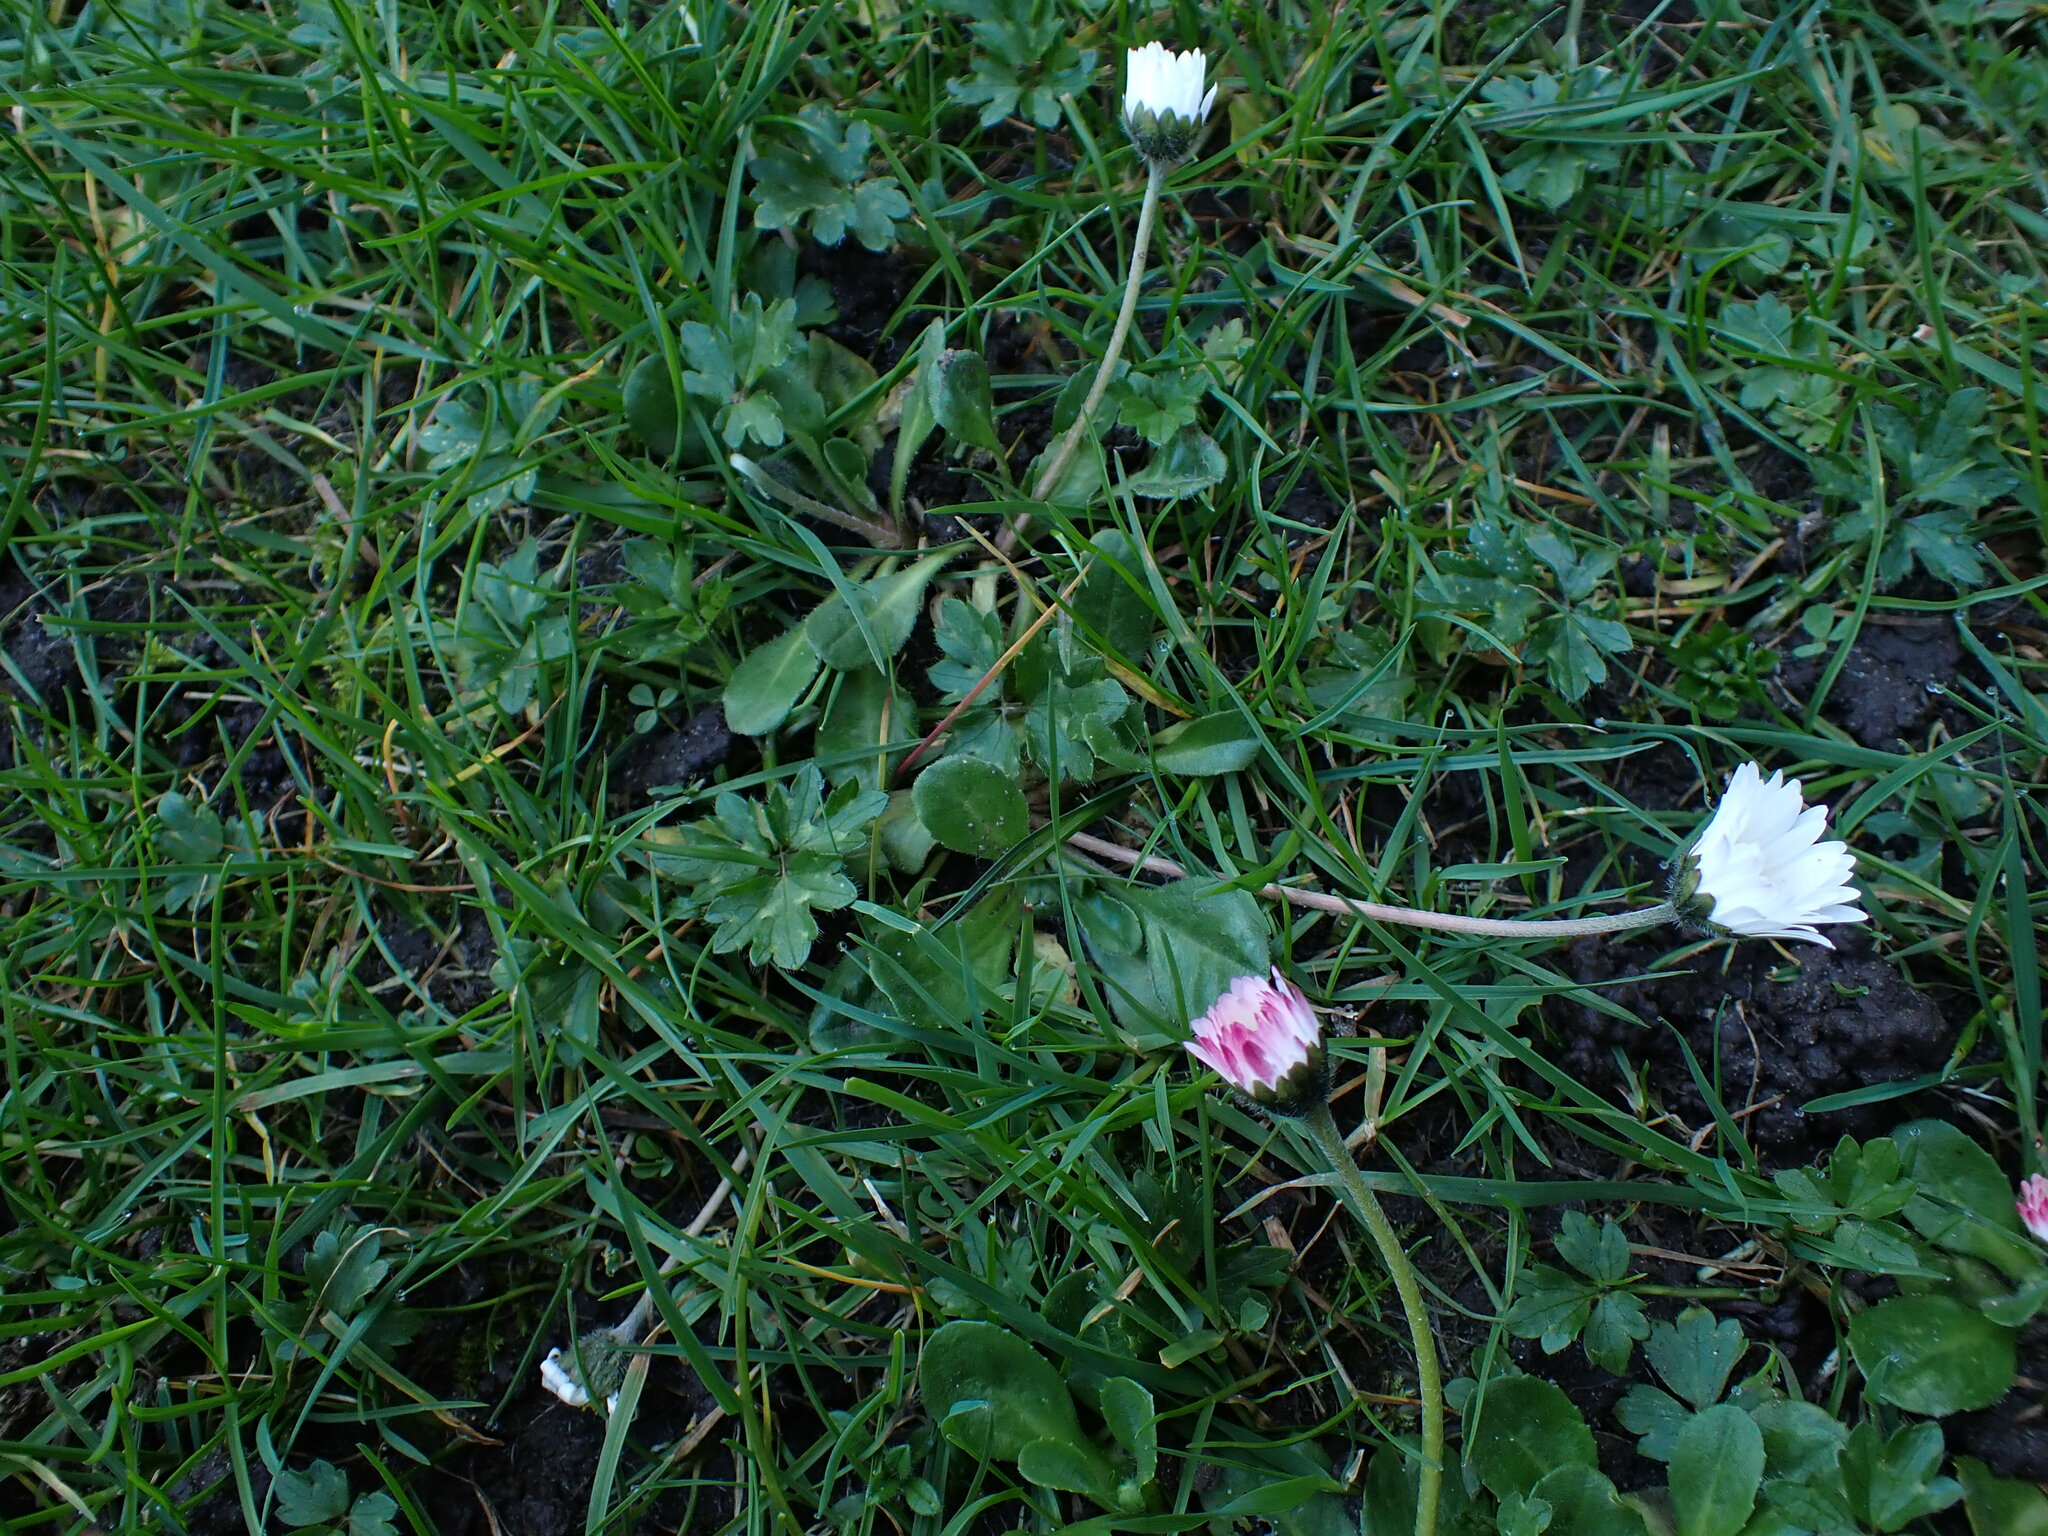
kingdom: Plantae
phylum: Tracheophyta
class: Magnoliopsida
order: Asterales
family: Asteraceae
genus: Bellis
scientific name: Bellis perennis
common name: Lawndaisy
